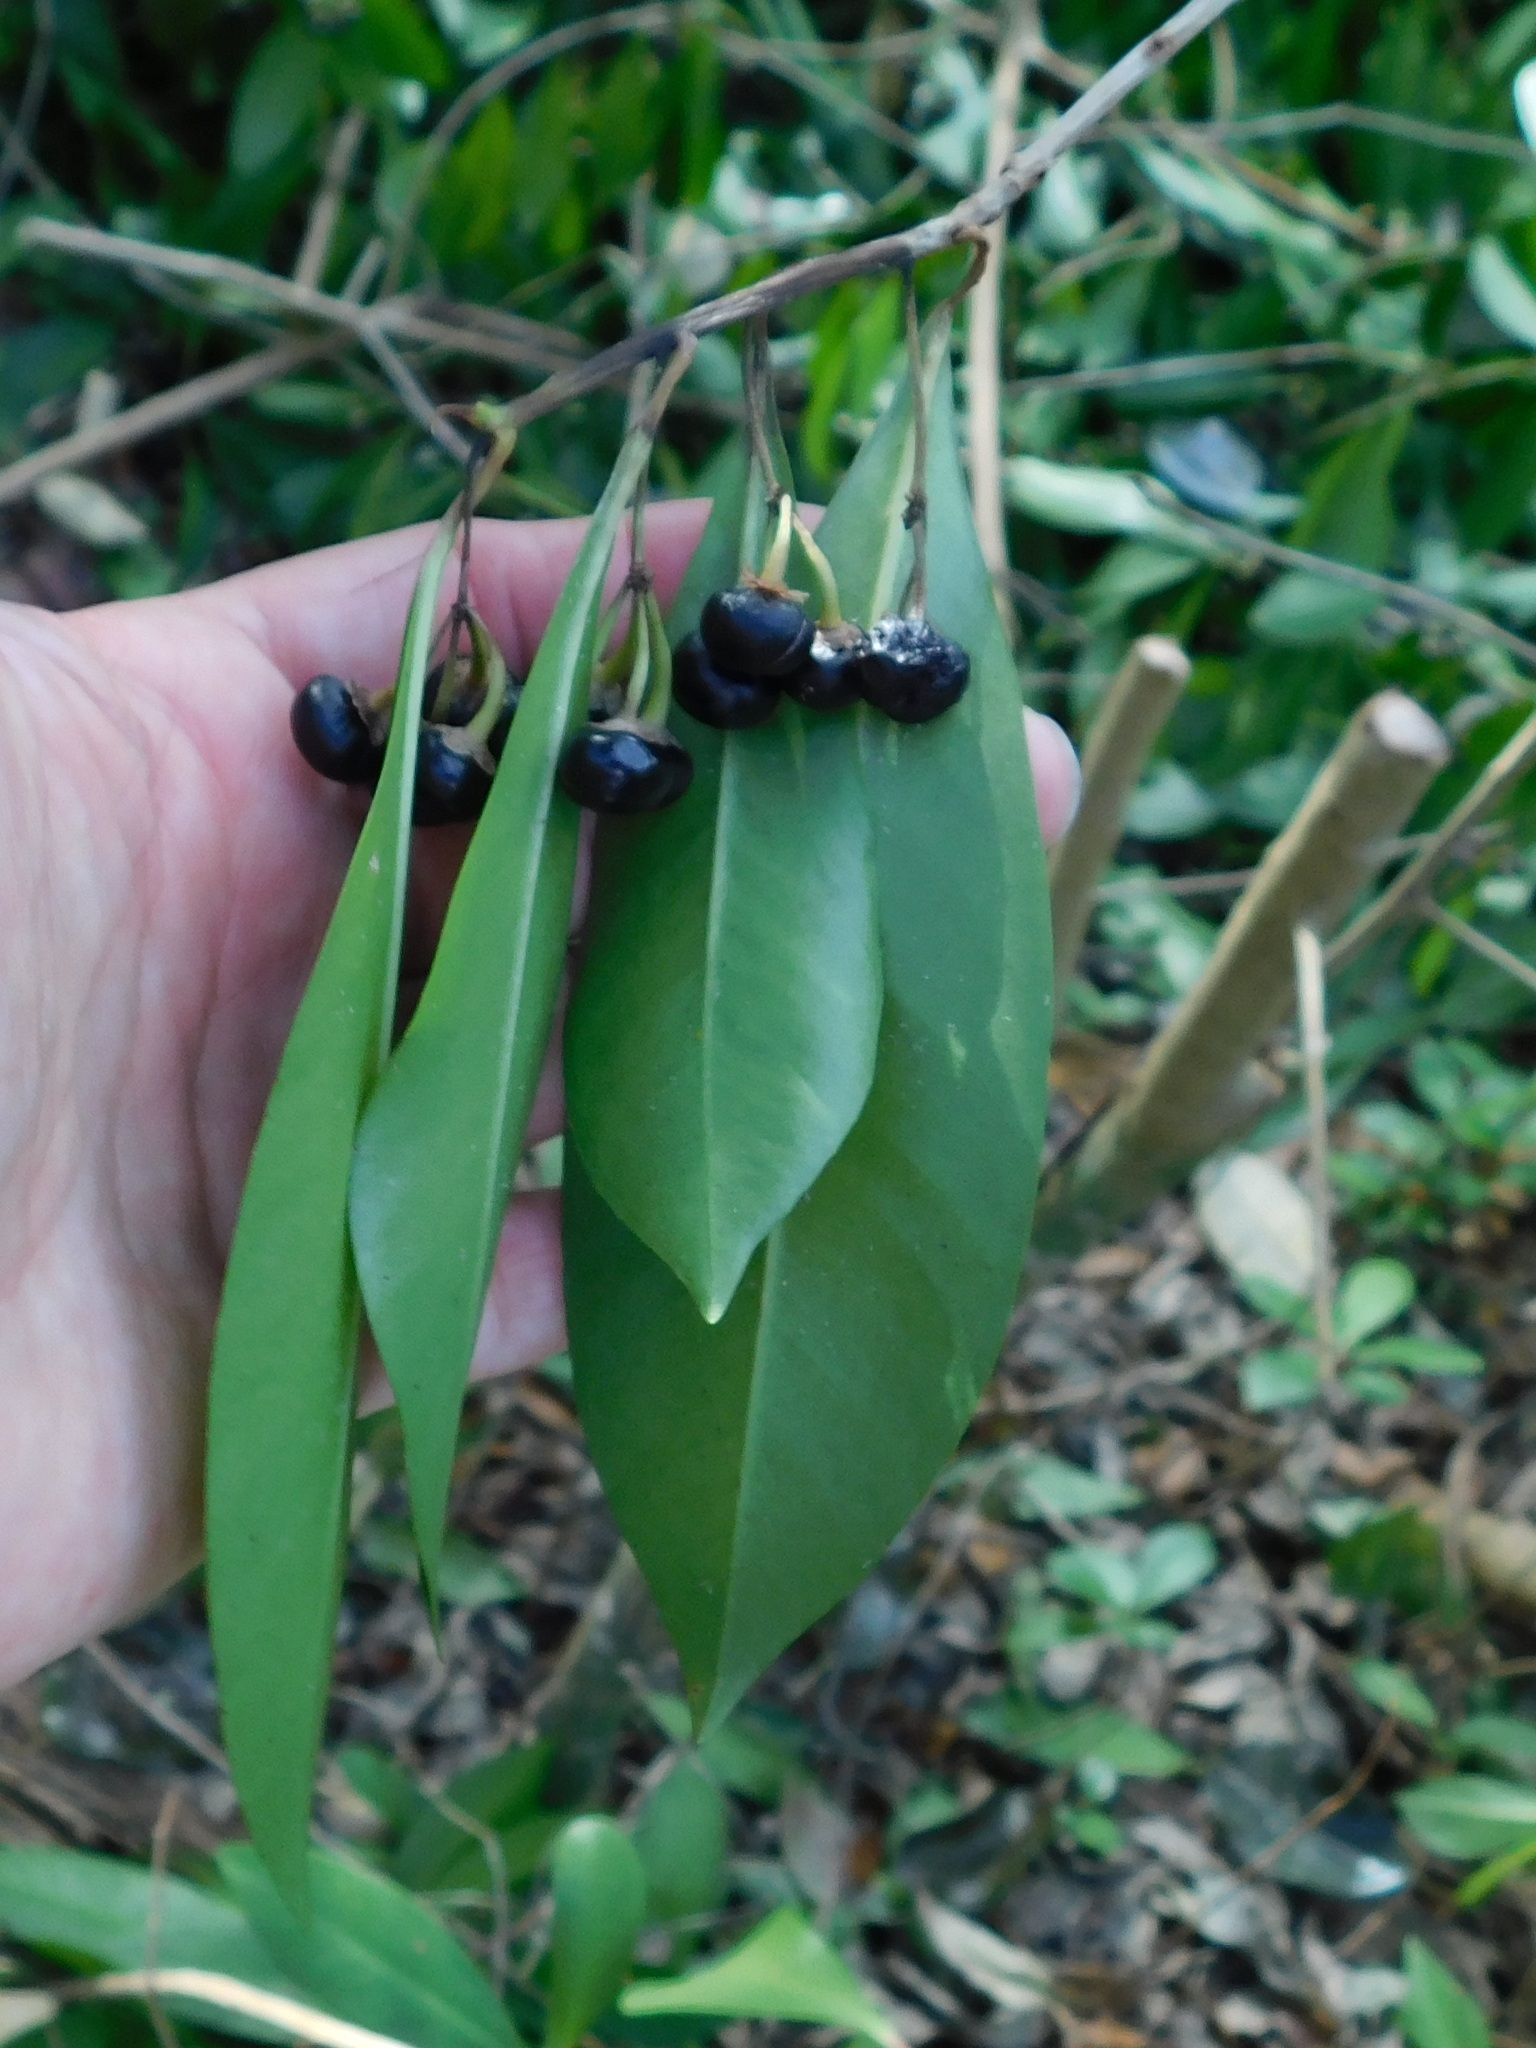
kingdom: Plantae
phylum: Tracheophyta
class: Magnoliopsida
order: Ericales
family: Primulaceae
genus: Ardisia
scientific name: Ardisia elliptica
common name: Shoebutton
